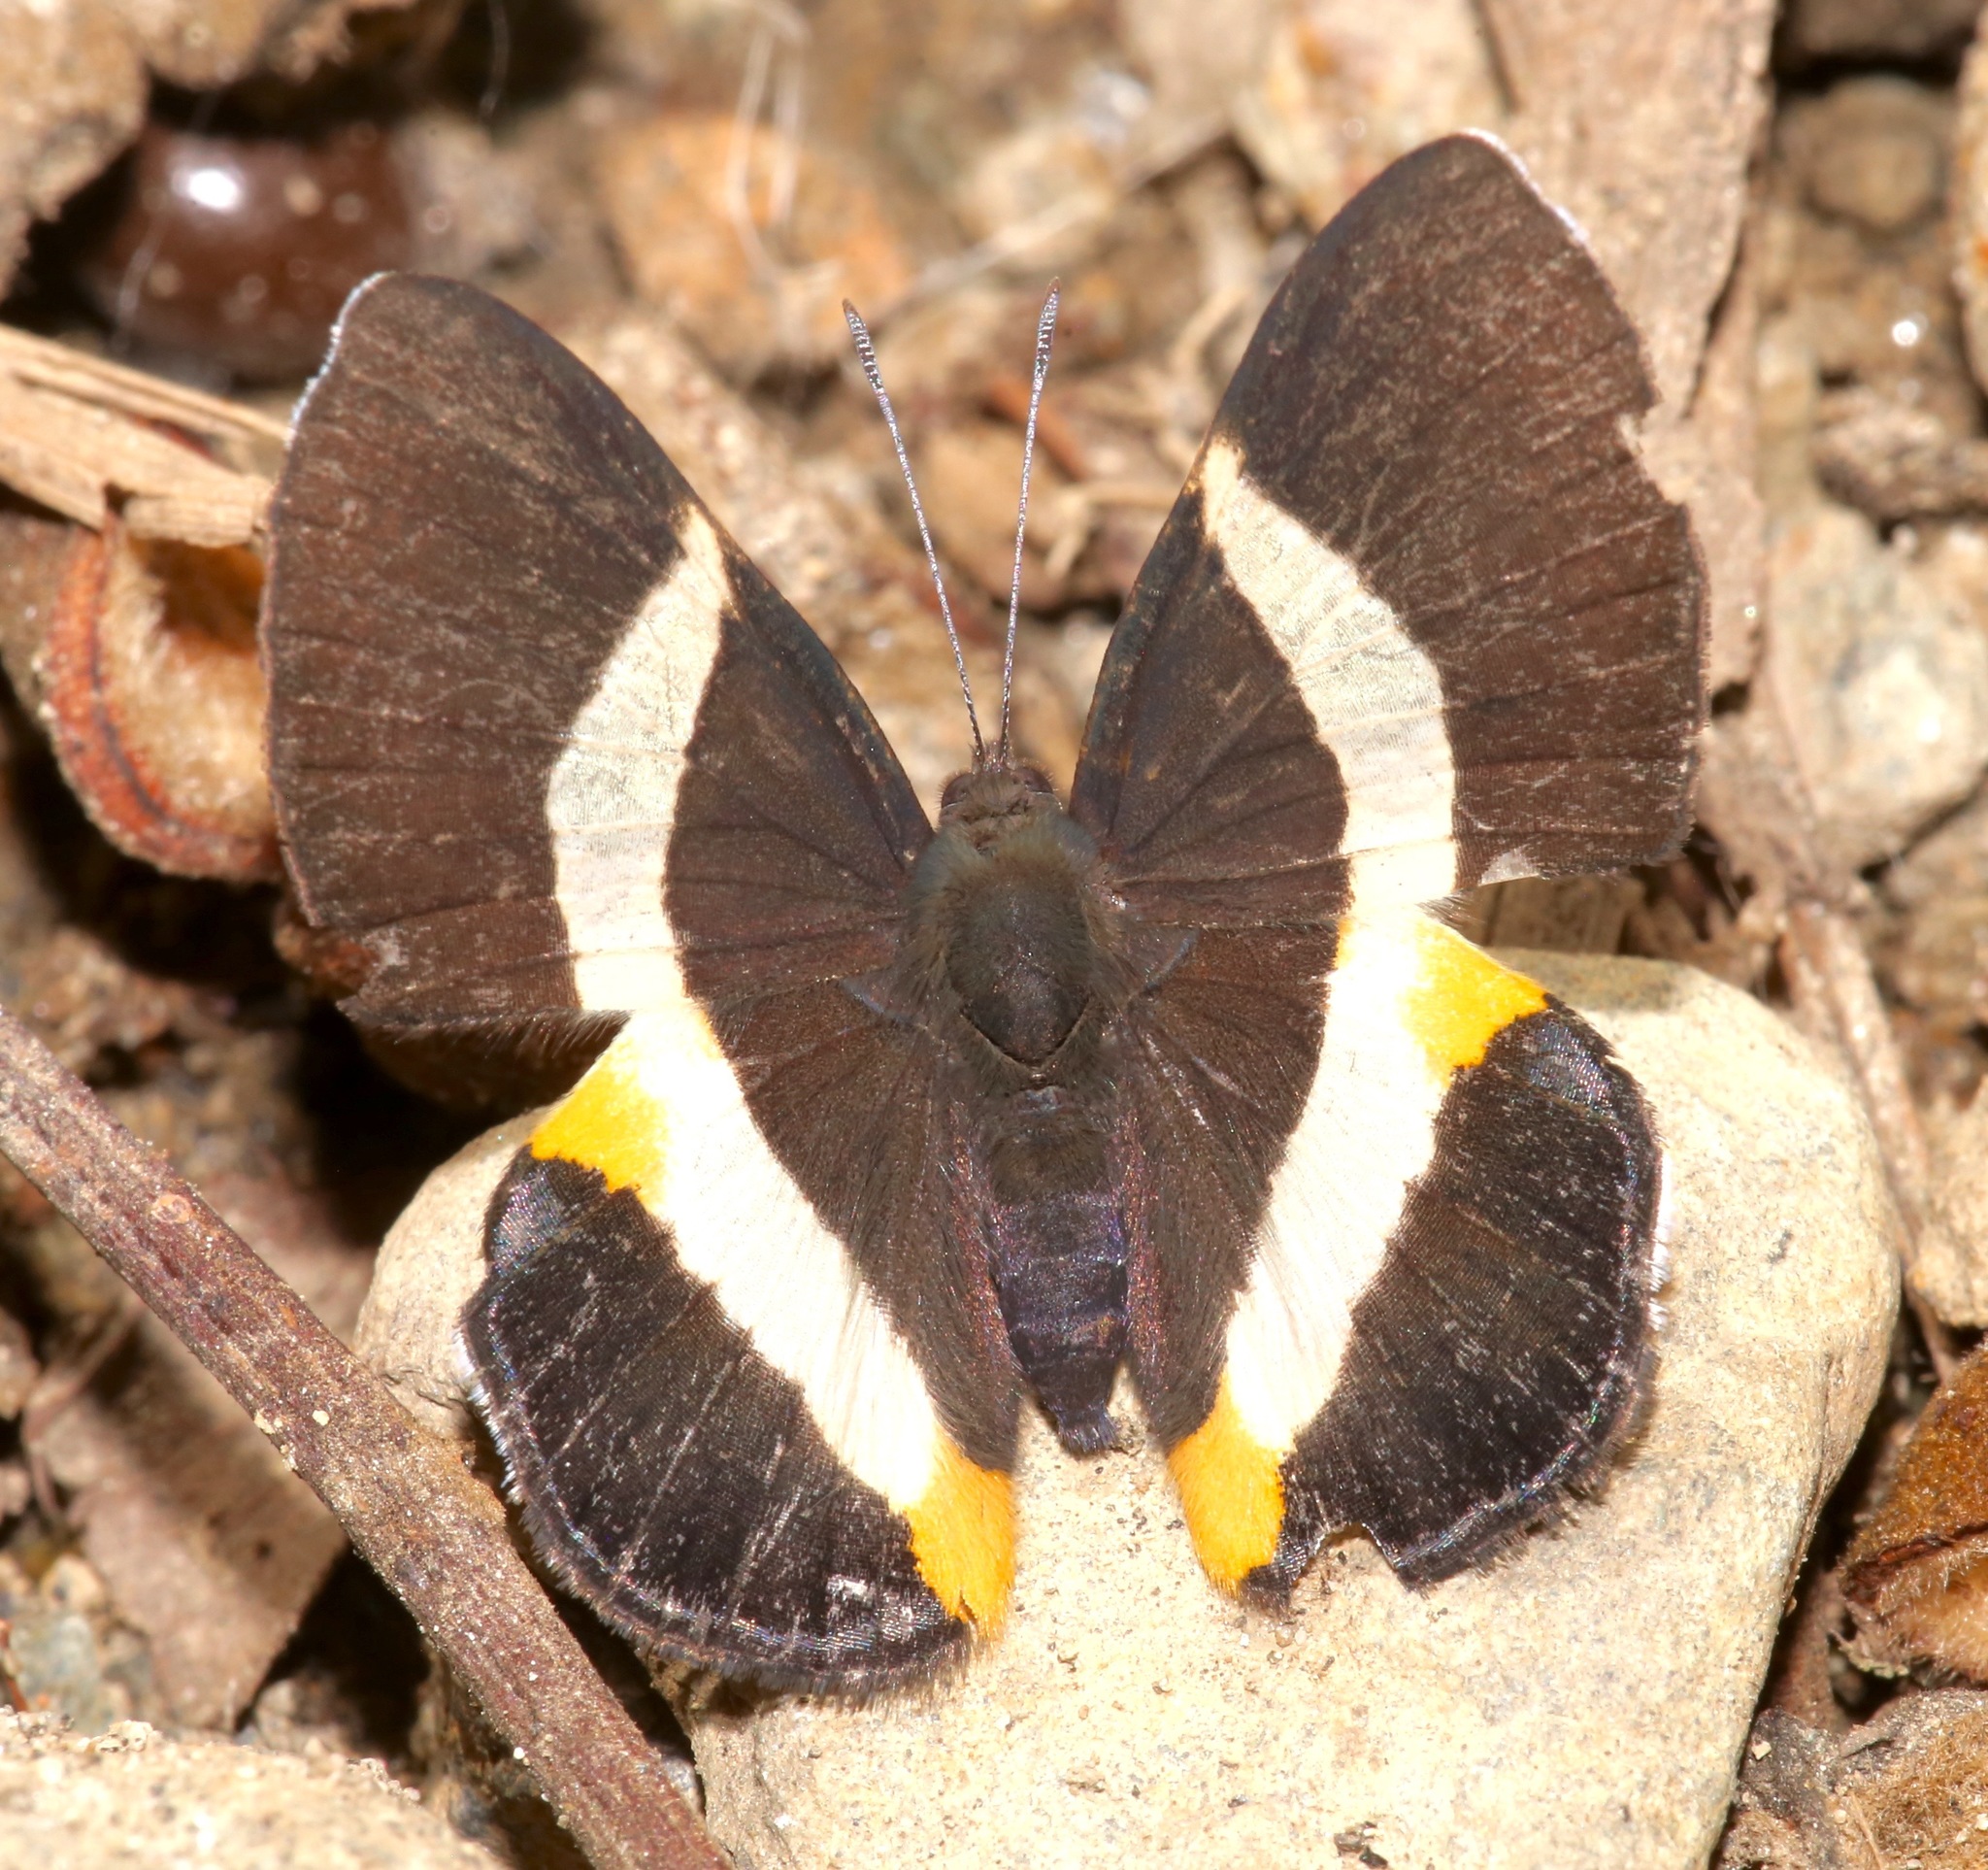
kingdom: Animalia
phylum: Arthropoda
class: Insecta
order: Lepidoptera
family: Riodinidae
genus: Notheme
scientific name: Notheme eumeus
